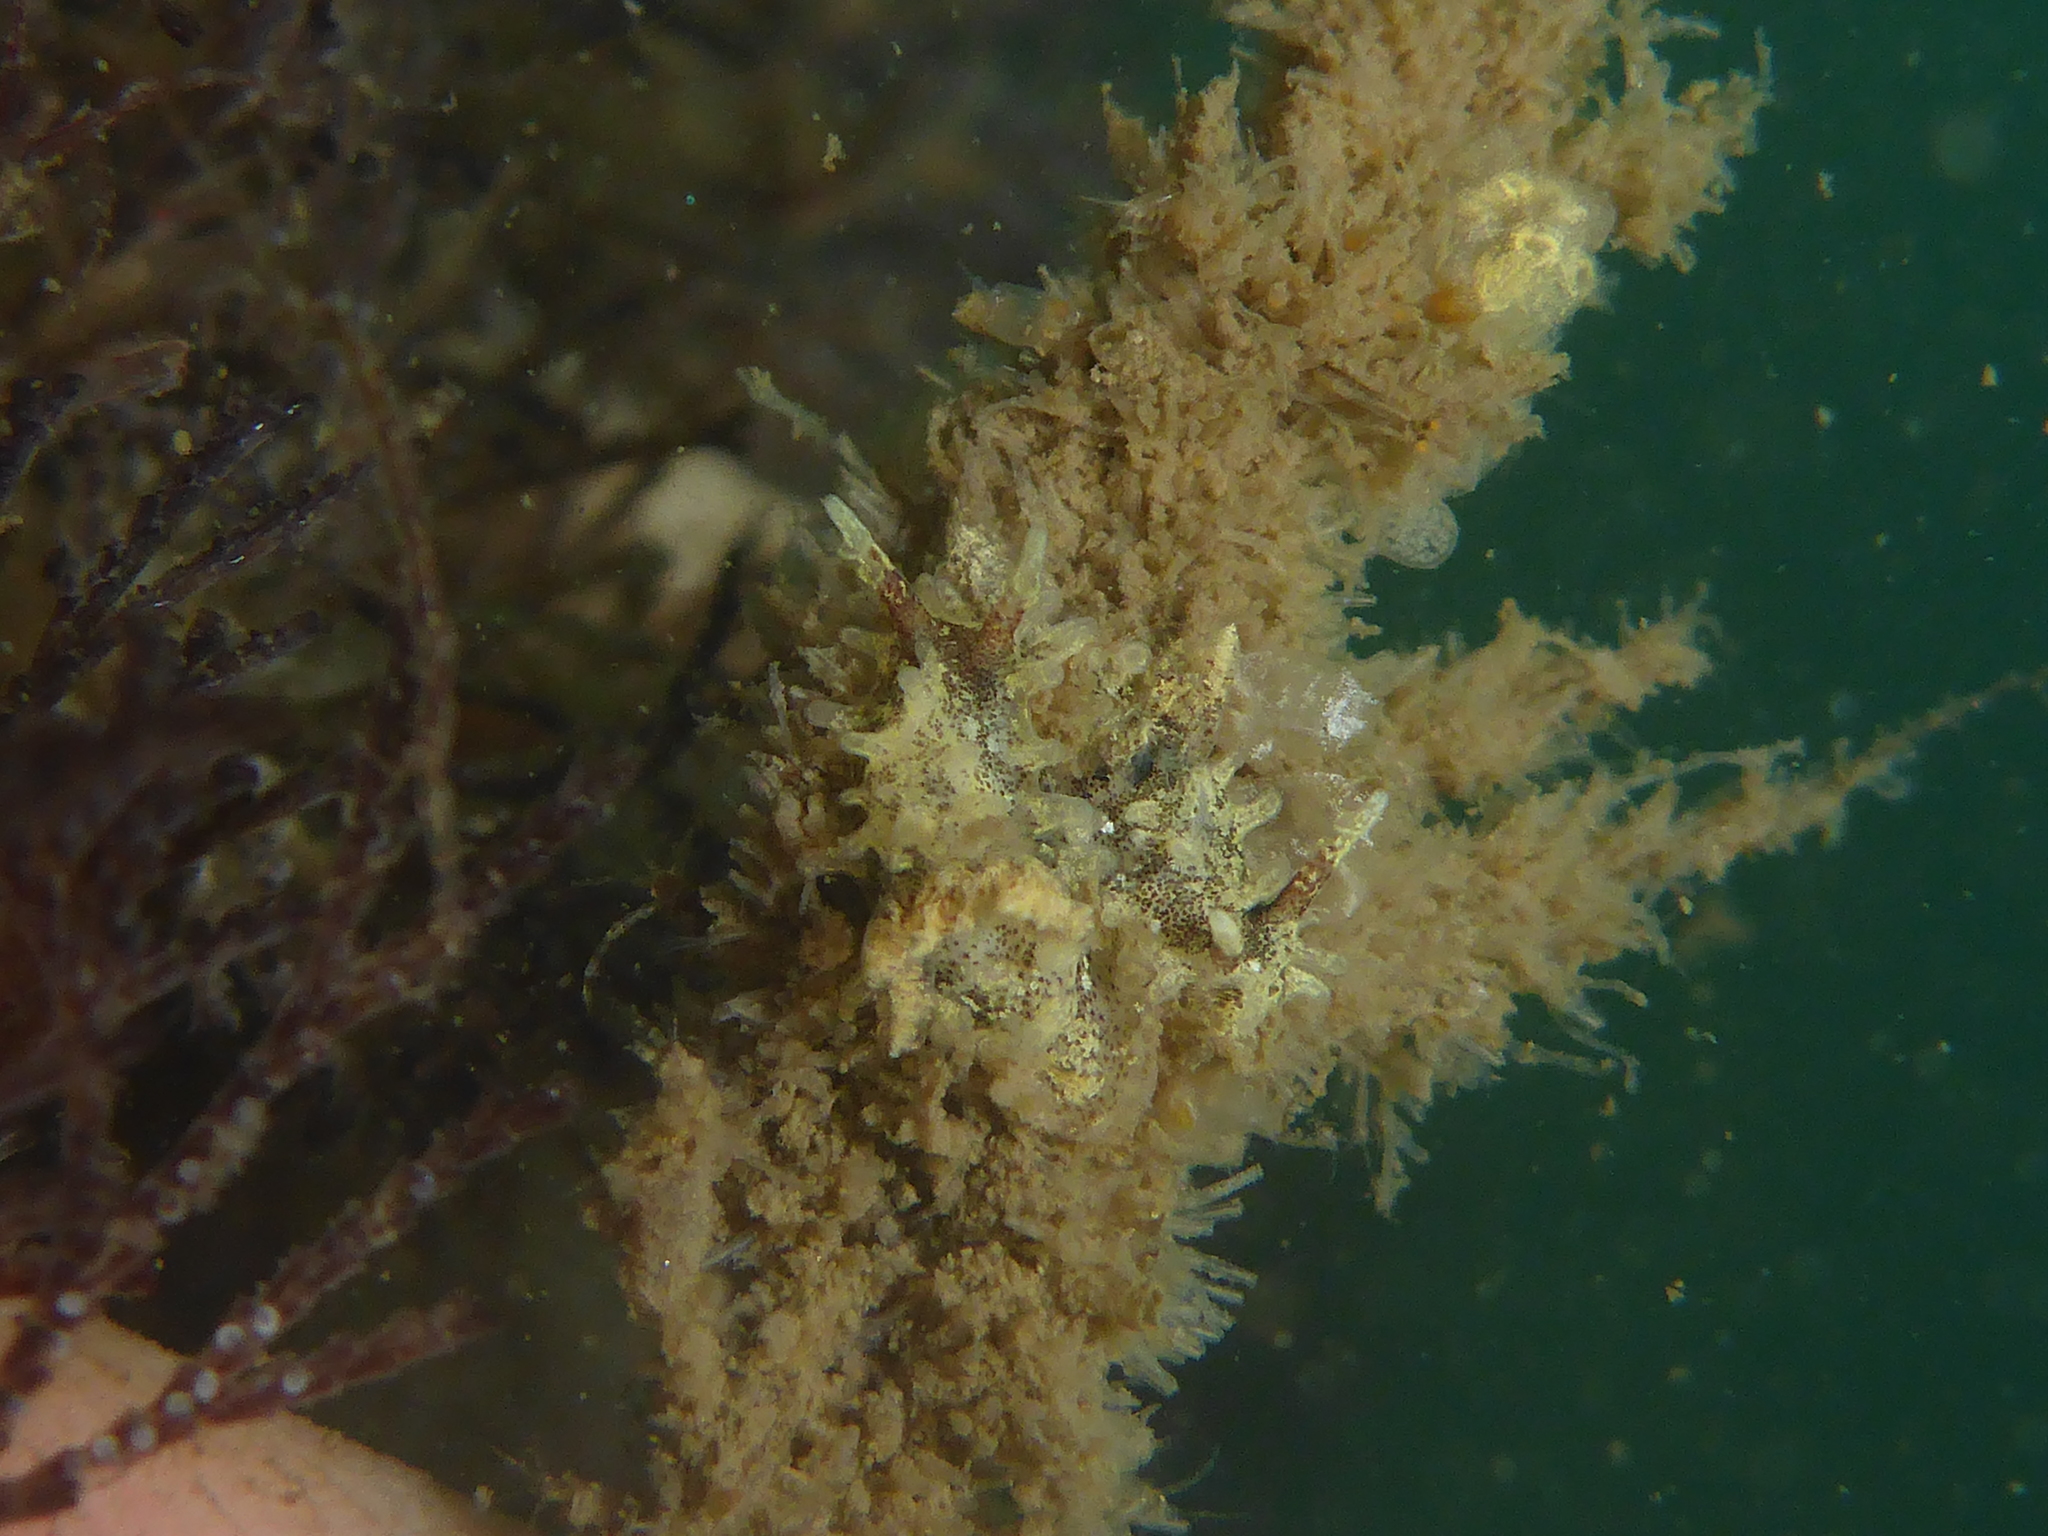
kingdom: Animalia
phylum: Mollusca
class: Gastropoda
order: Nudibranchia
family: Goniodorididae
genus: Okenia
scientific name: Okenia
